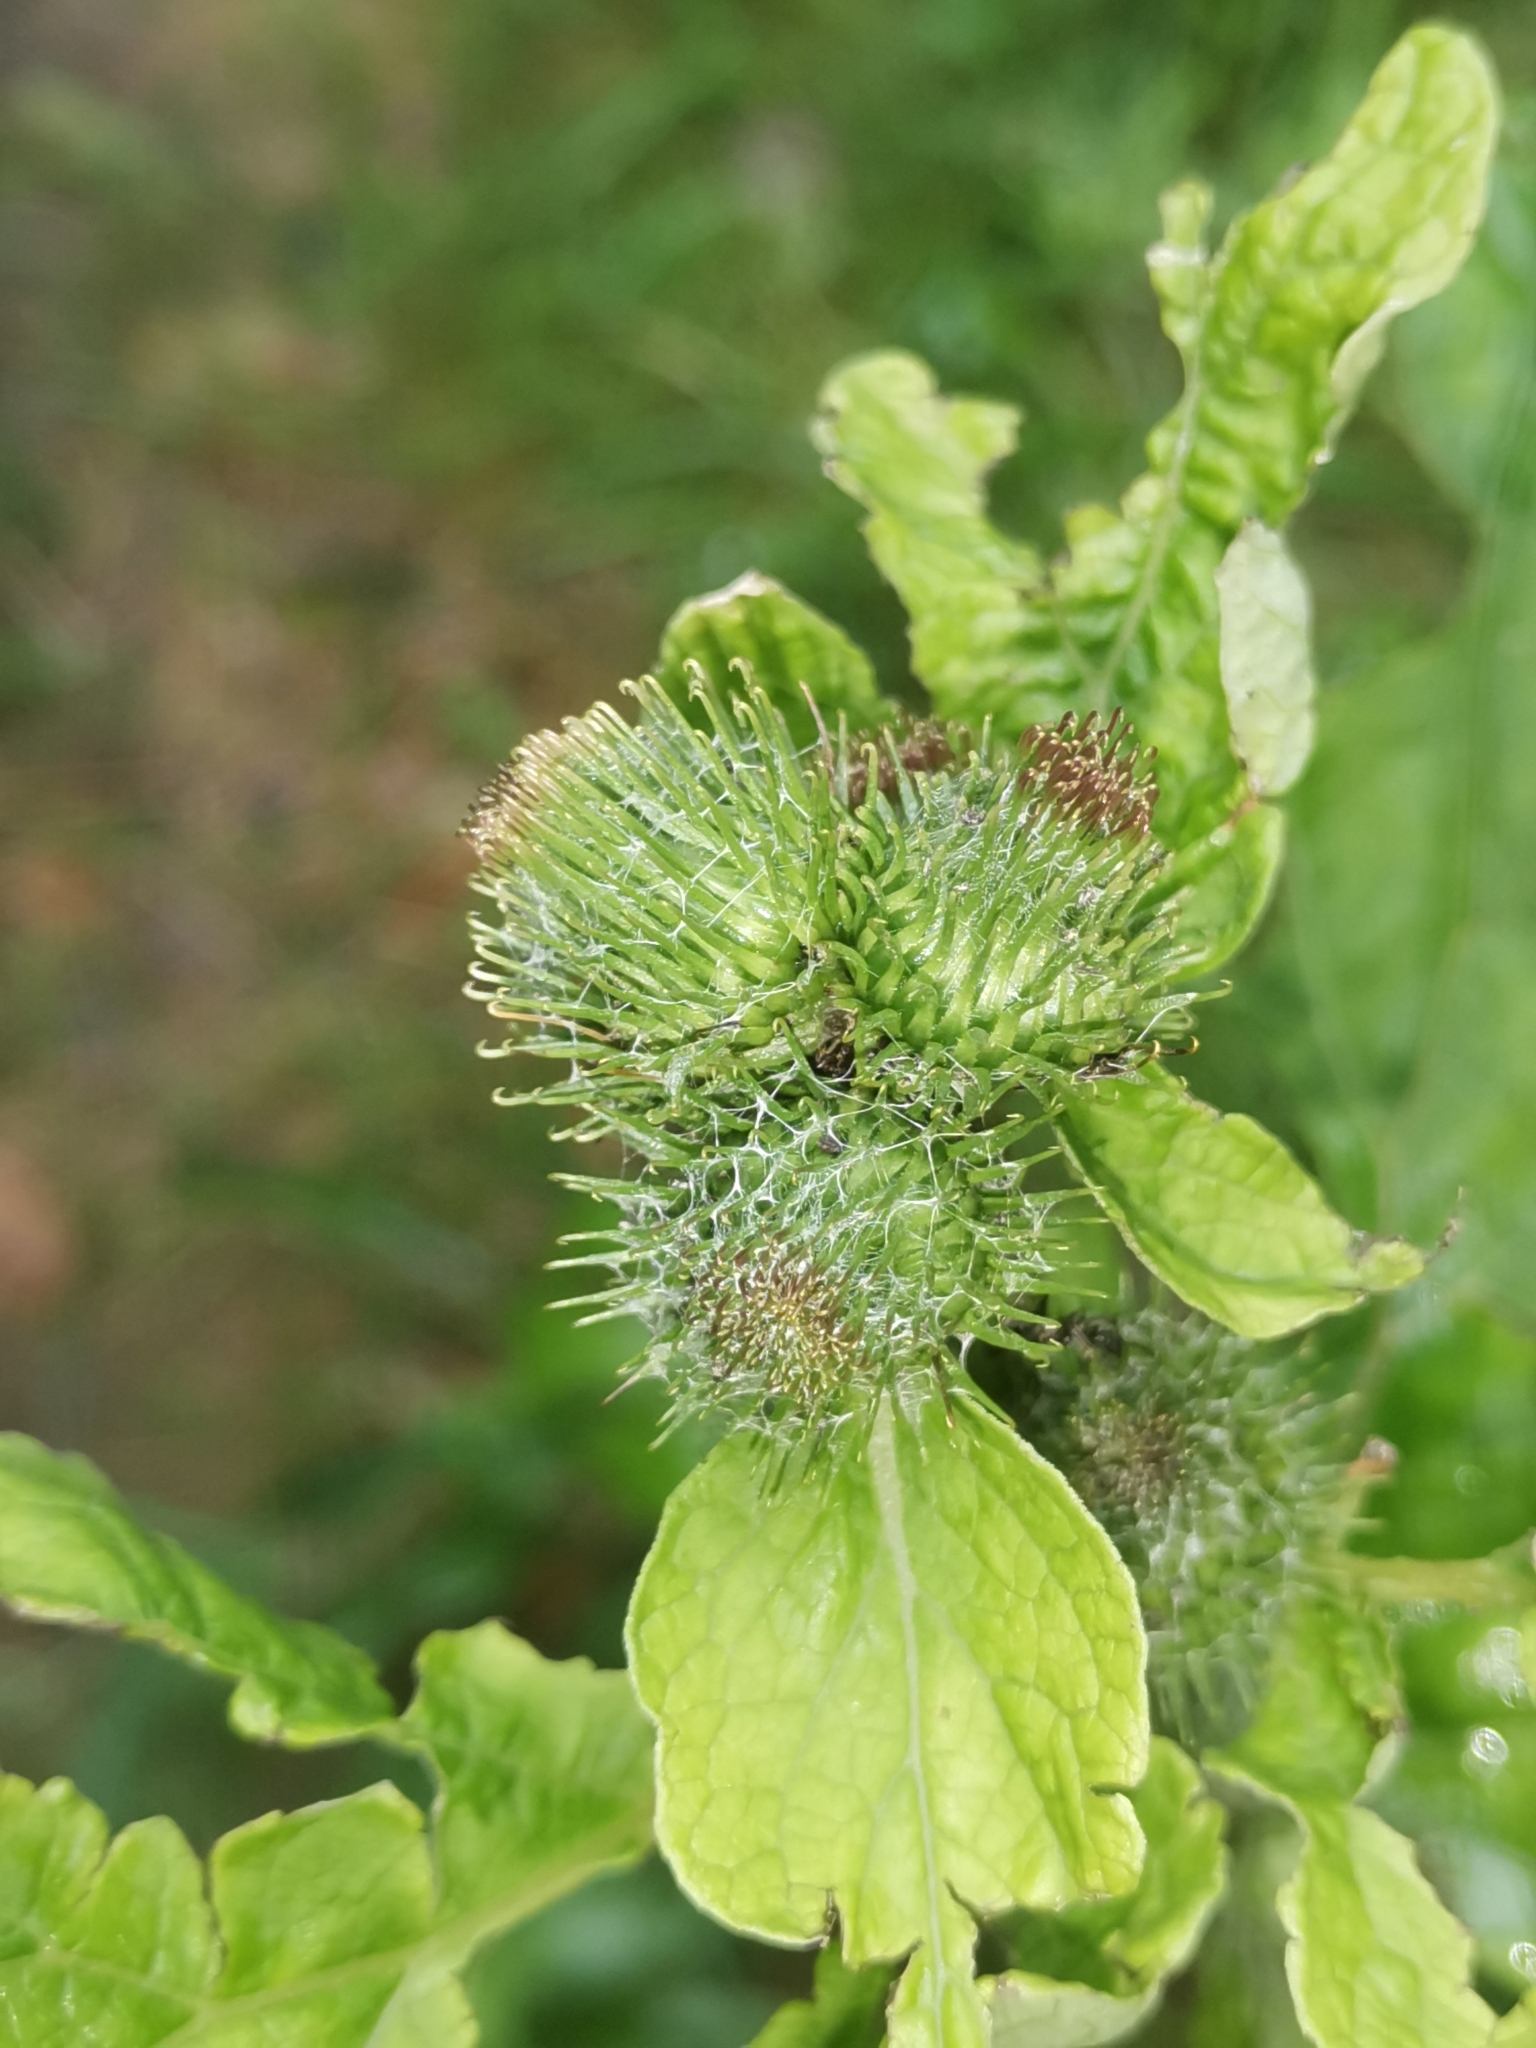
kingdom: Plantae
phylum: Tracheophyta
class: Magnoliopsida
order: Asterales
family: Asteraceae
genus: Arctium
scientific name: Arctium minus
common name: Lesser burdock
